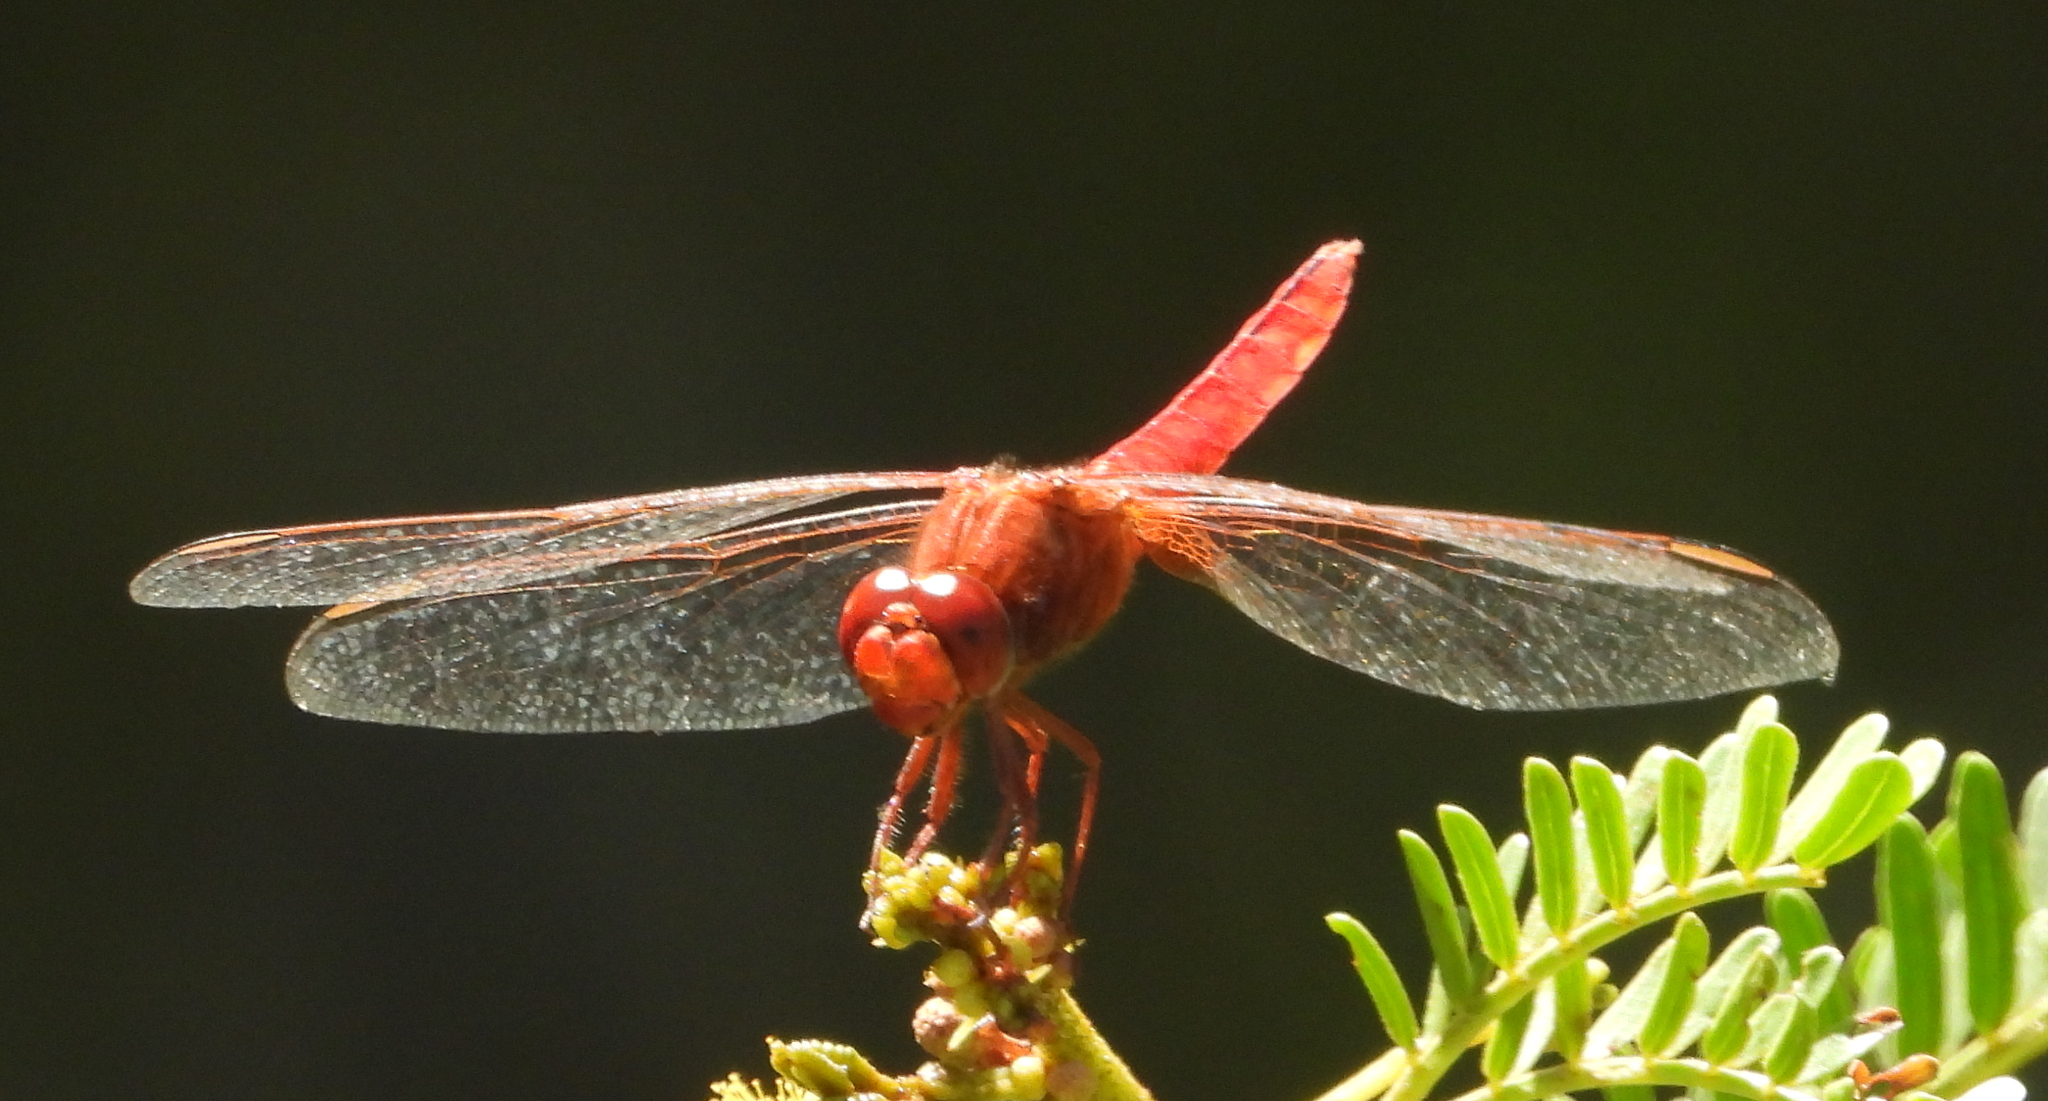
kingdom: Animalia
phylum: Arthropoda
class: Insecta
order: Odonata
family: Libellulidae
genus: Crocothemis
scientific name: Crocothemis erythraea
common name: Scarlet dragonfly
